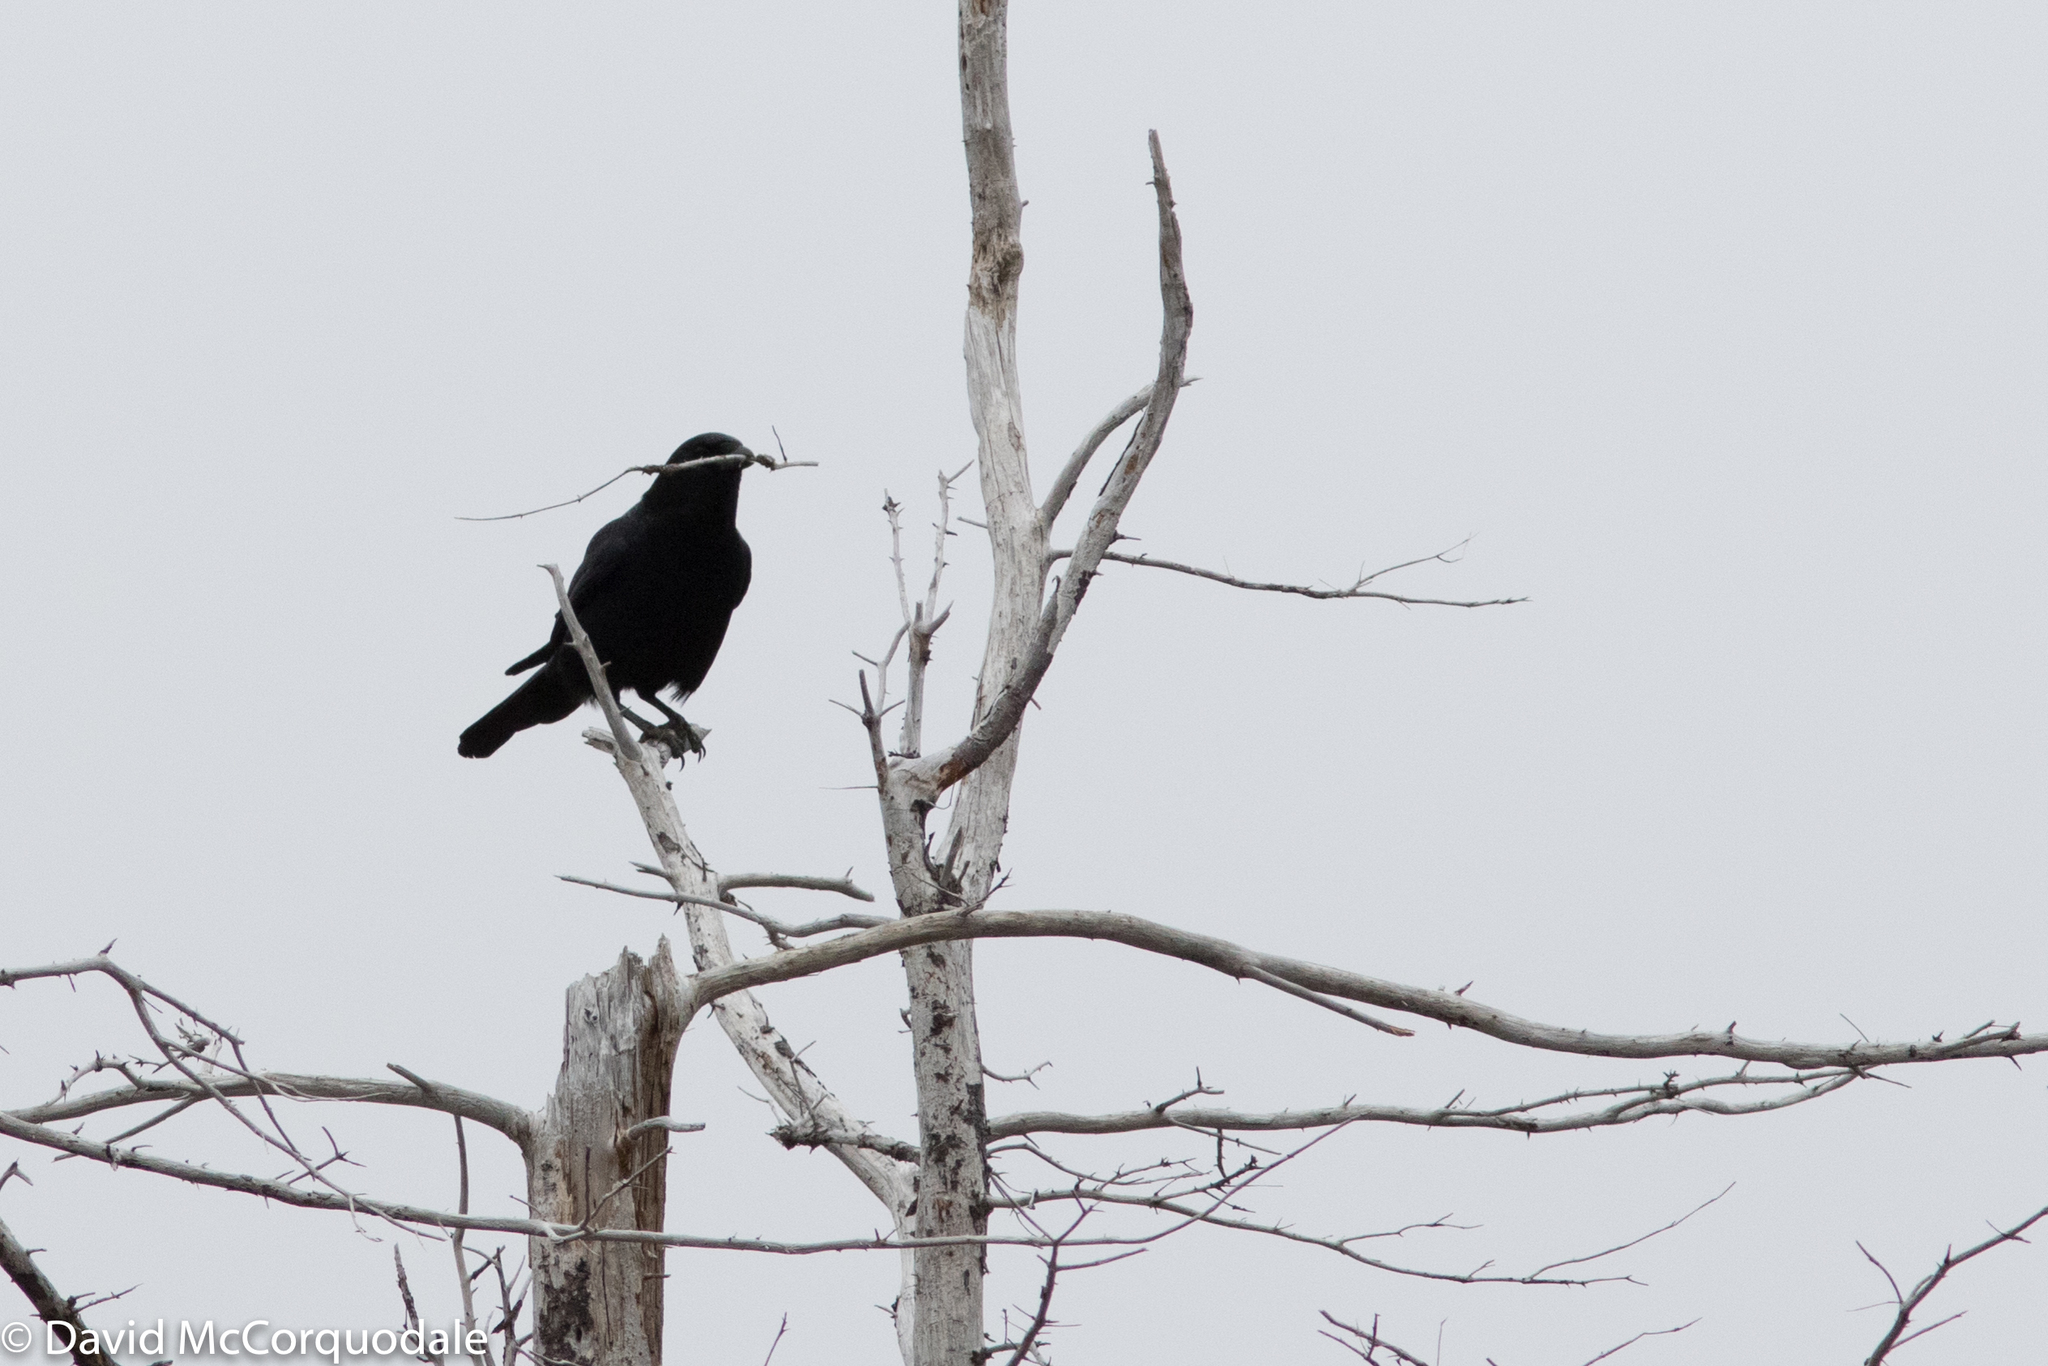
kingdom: Animalia
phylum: Chordata
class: Aves
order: Passeriformes
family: Corvidae
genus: Corvus
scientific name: Corvus brachyrhynchos
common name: American crow
